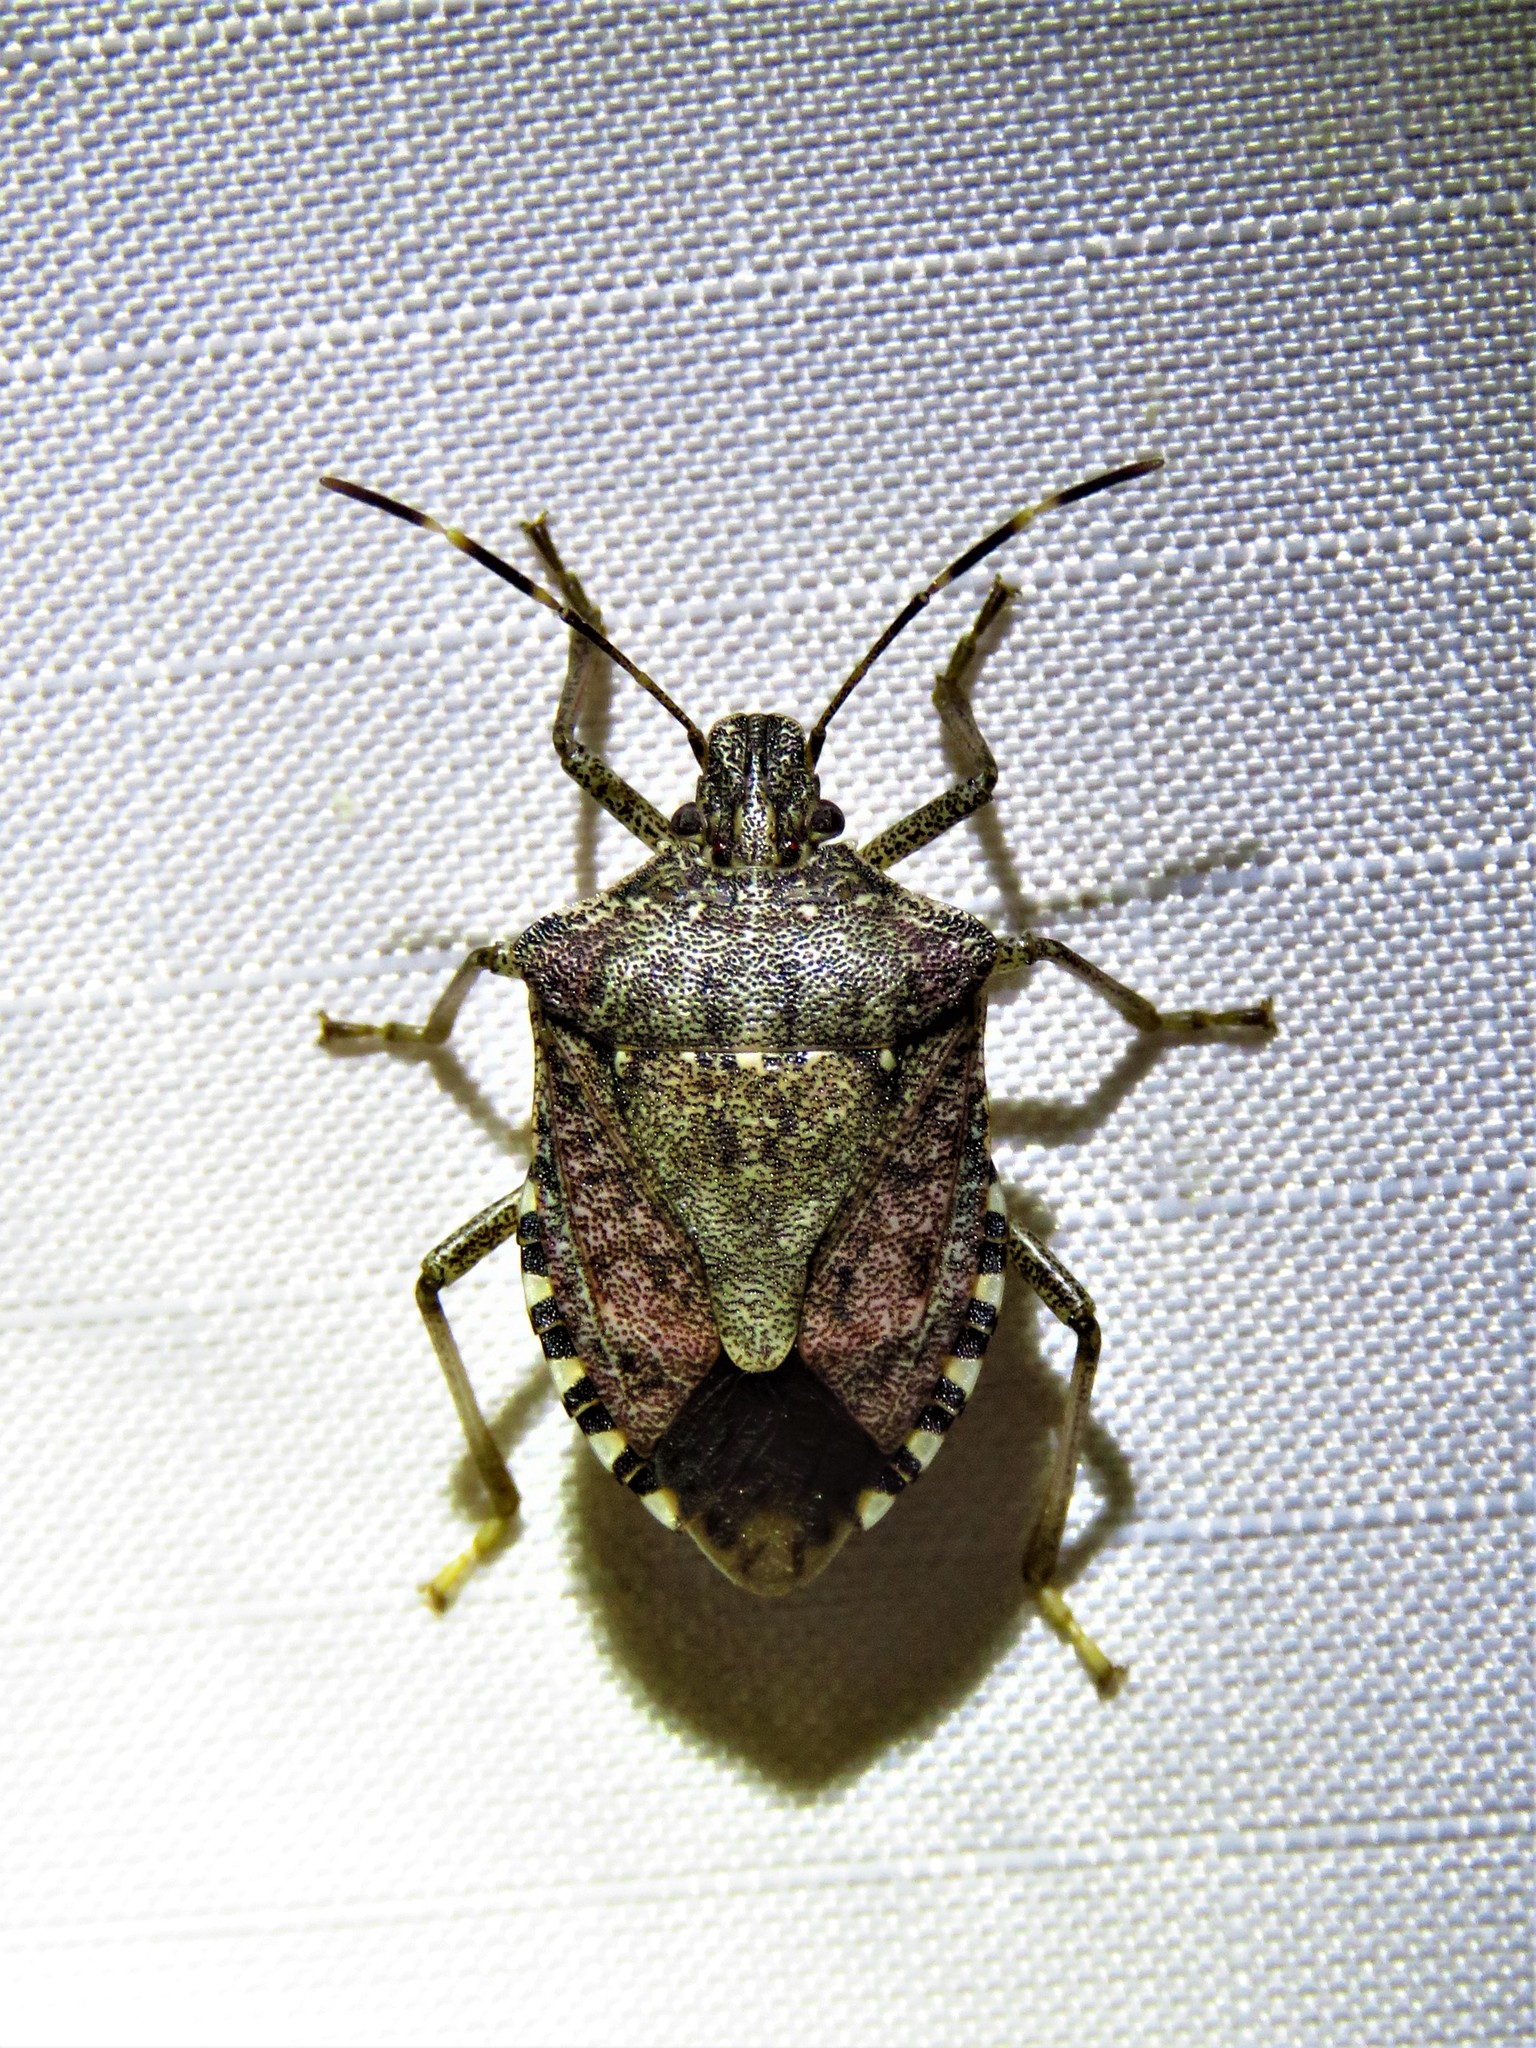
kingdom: Animalia
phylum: Arthropoda
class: Insecta
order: Hemiptera
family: Pentatomidae
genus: Halyomorpha
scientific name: Halyomorpha halys
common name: Brown marmorated stink bug
